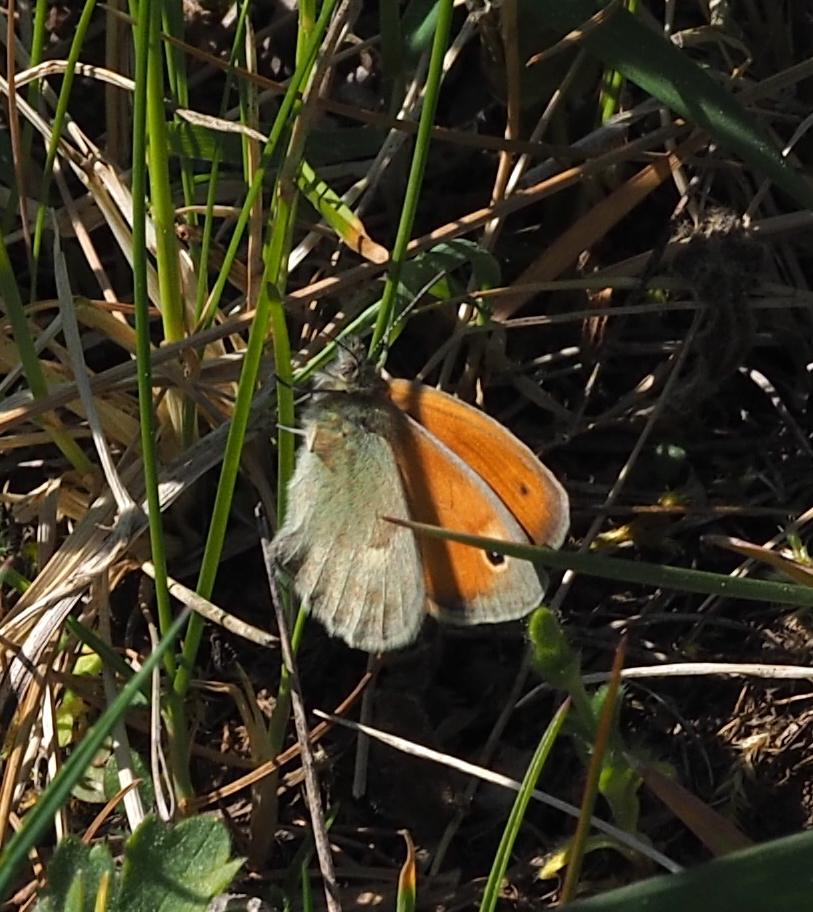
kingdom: Animalia
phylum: Arthropoda
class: Insecta
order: Lepidoptera
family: Nymphalidae
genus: Coenonympha
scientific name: Coenonympha pamphilus
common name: Small heath
